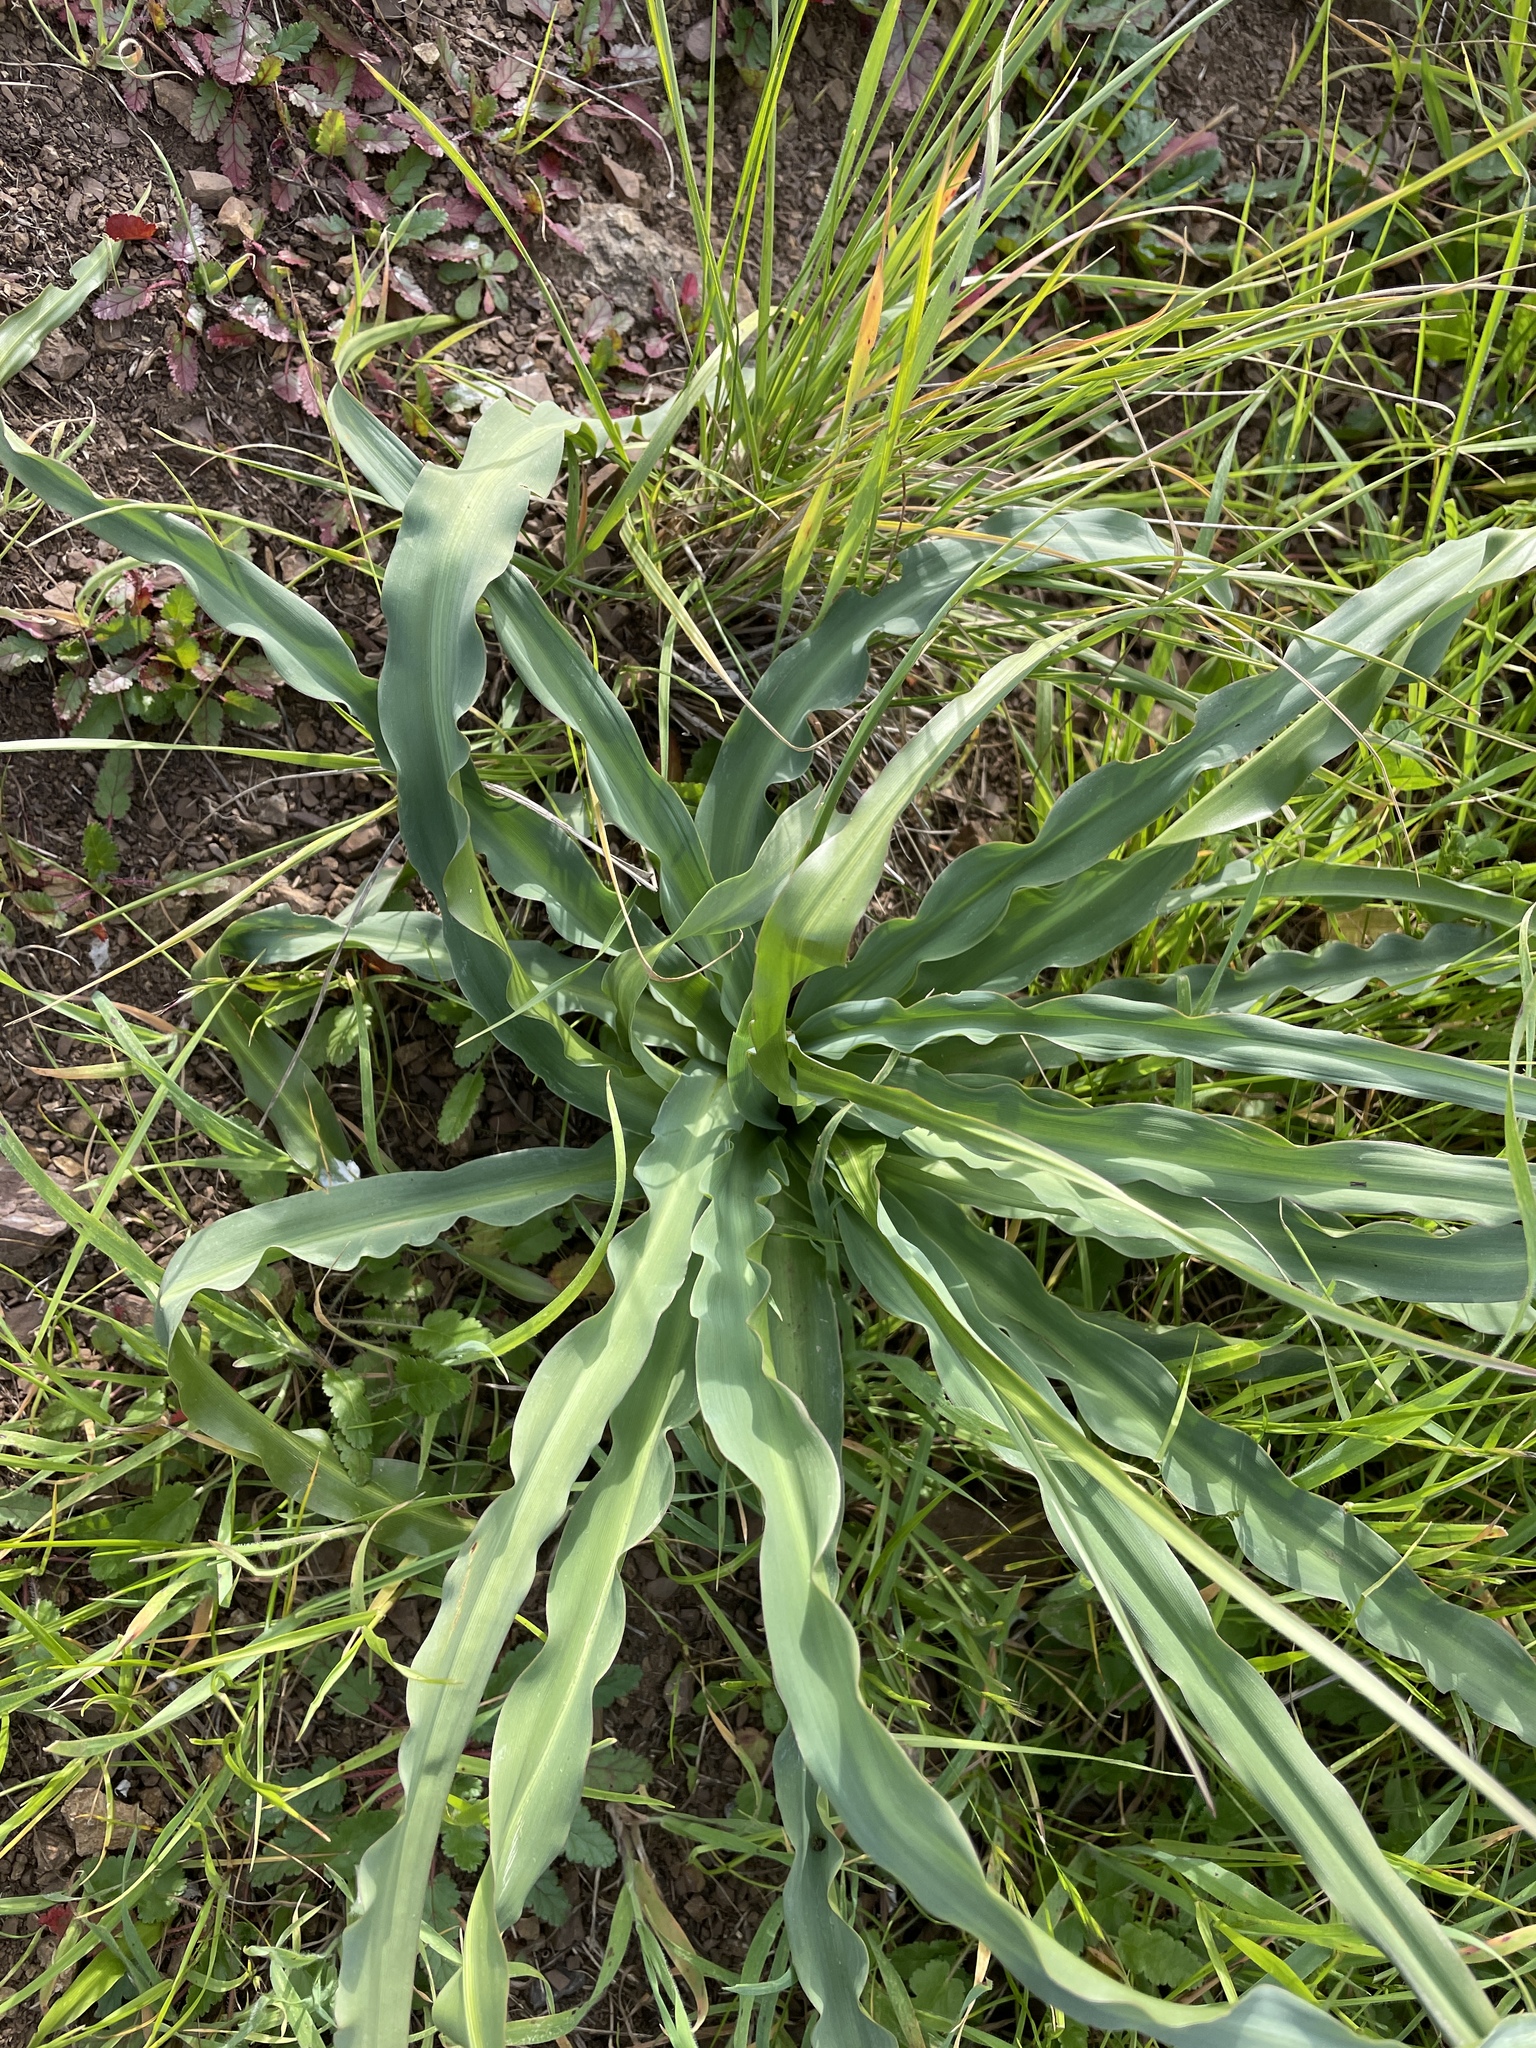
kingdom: Plantae
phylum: Tracheophyta
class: Liliopsida
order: Asparagales
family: Asparagaceae
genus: Chlorogalum
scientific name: Chlorogalum pomeridianum
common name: Amole
